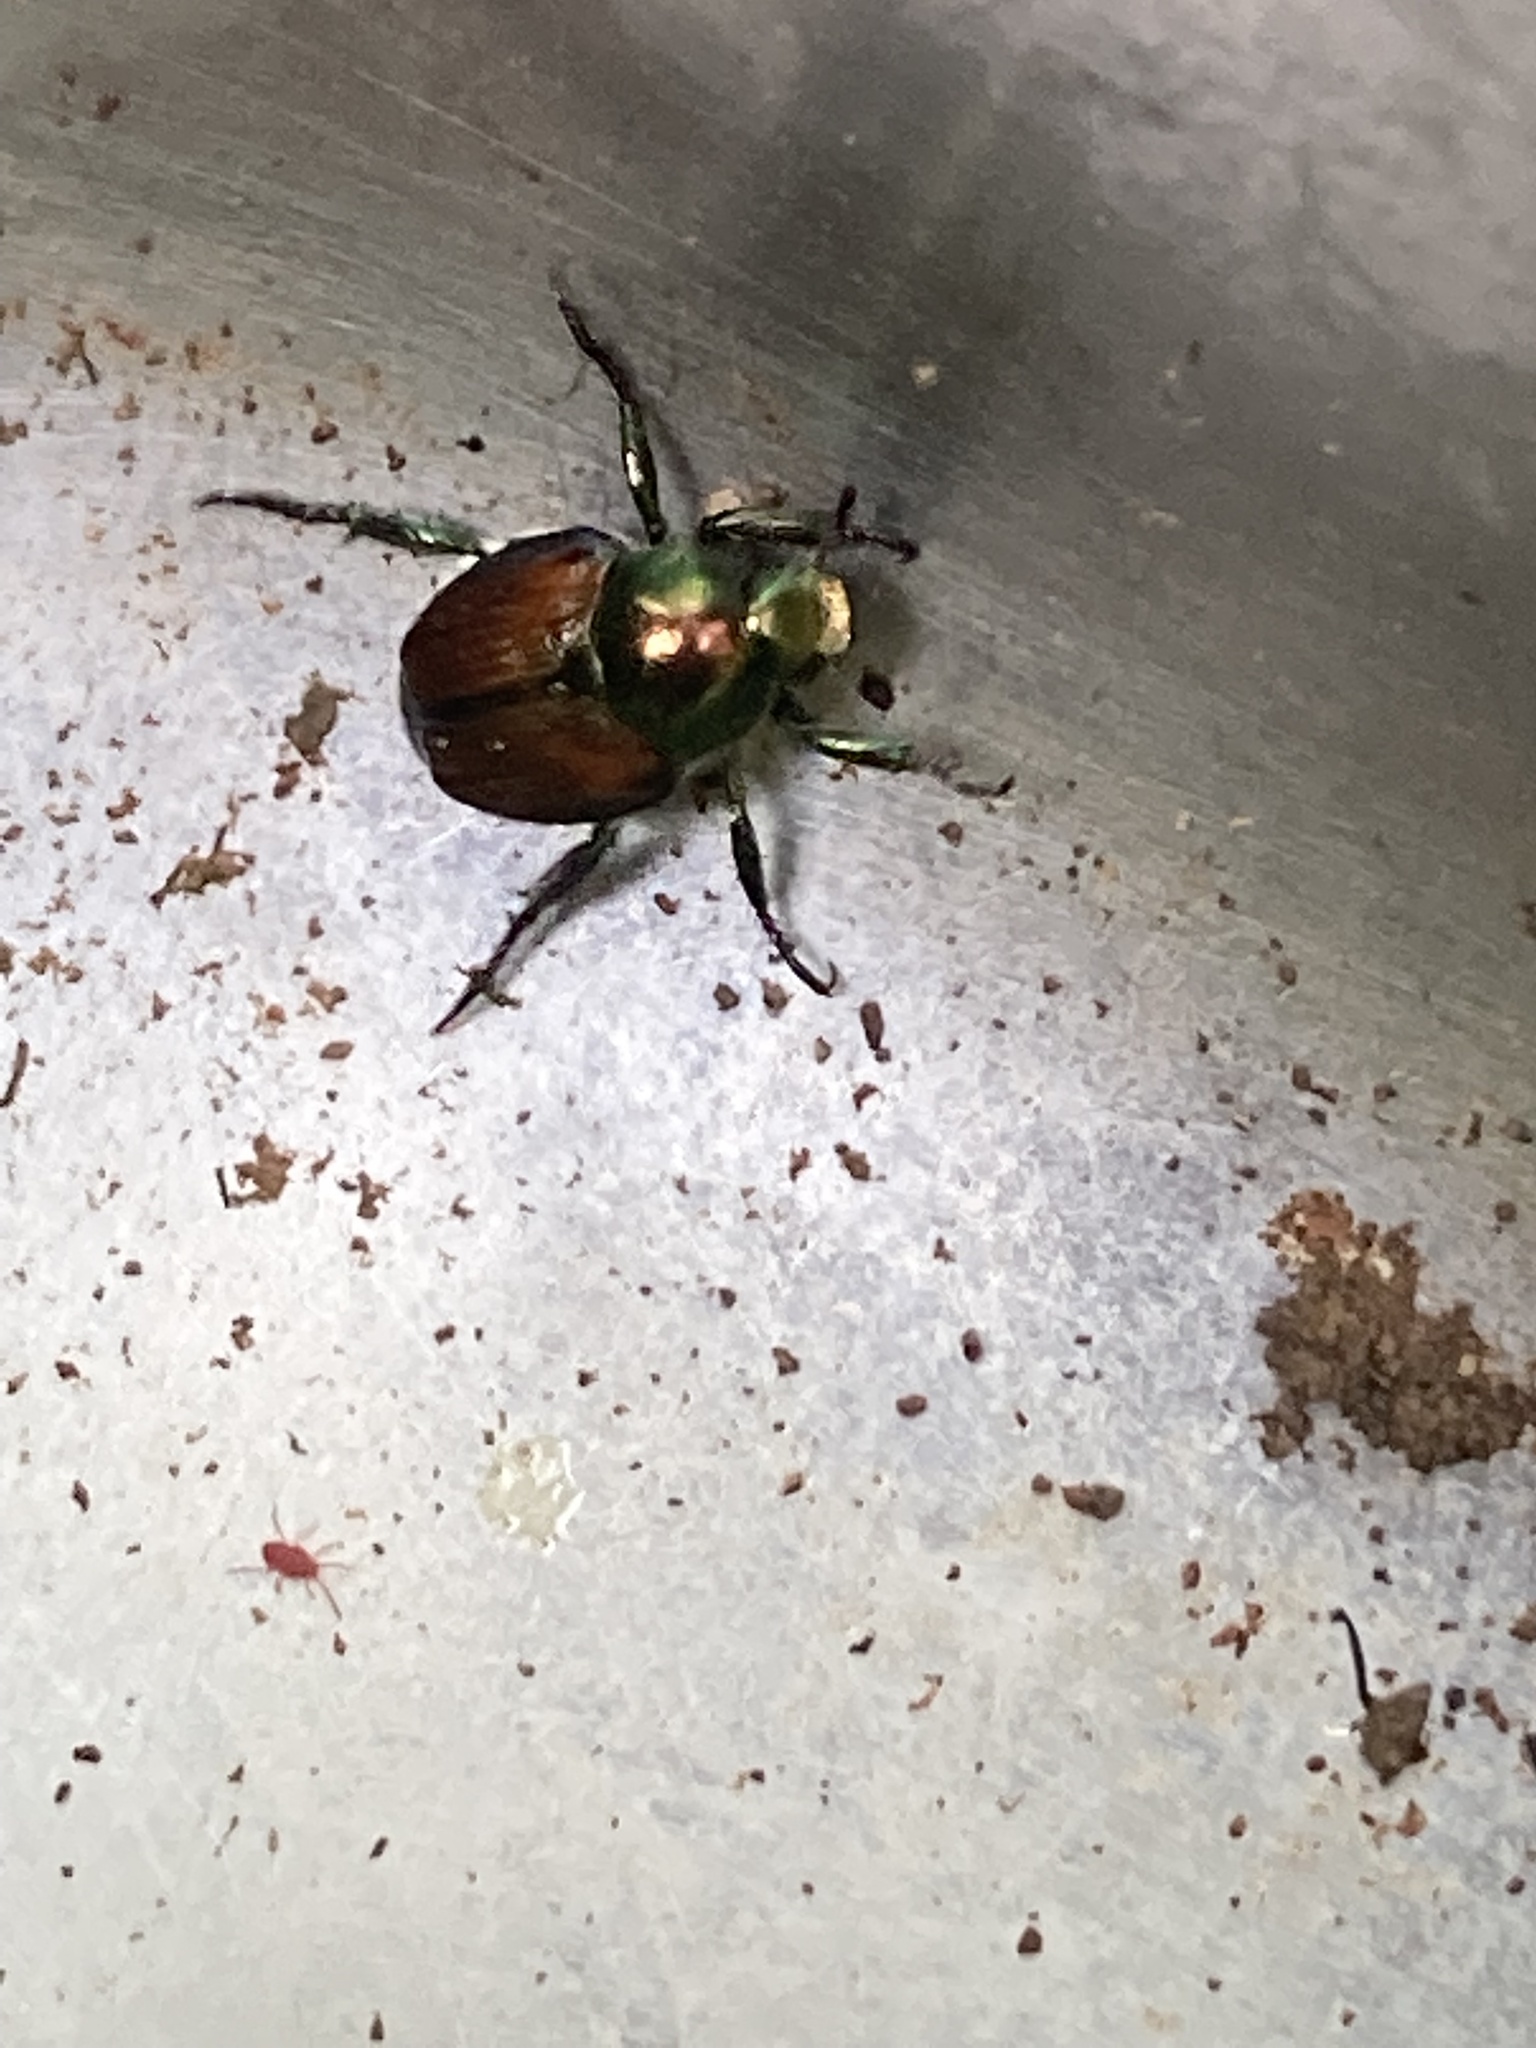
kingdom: Animalia
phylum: Arthropoda
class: Insecta
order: Coleoptera
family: Scarabaeidae
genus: Popillia
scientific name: Popillia japonica
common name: Japanese beetle
